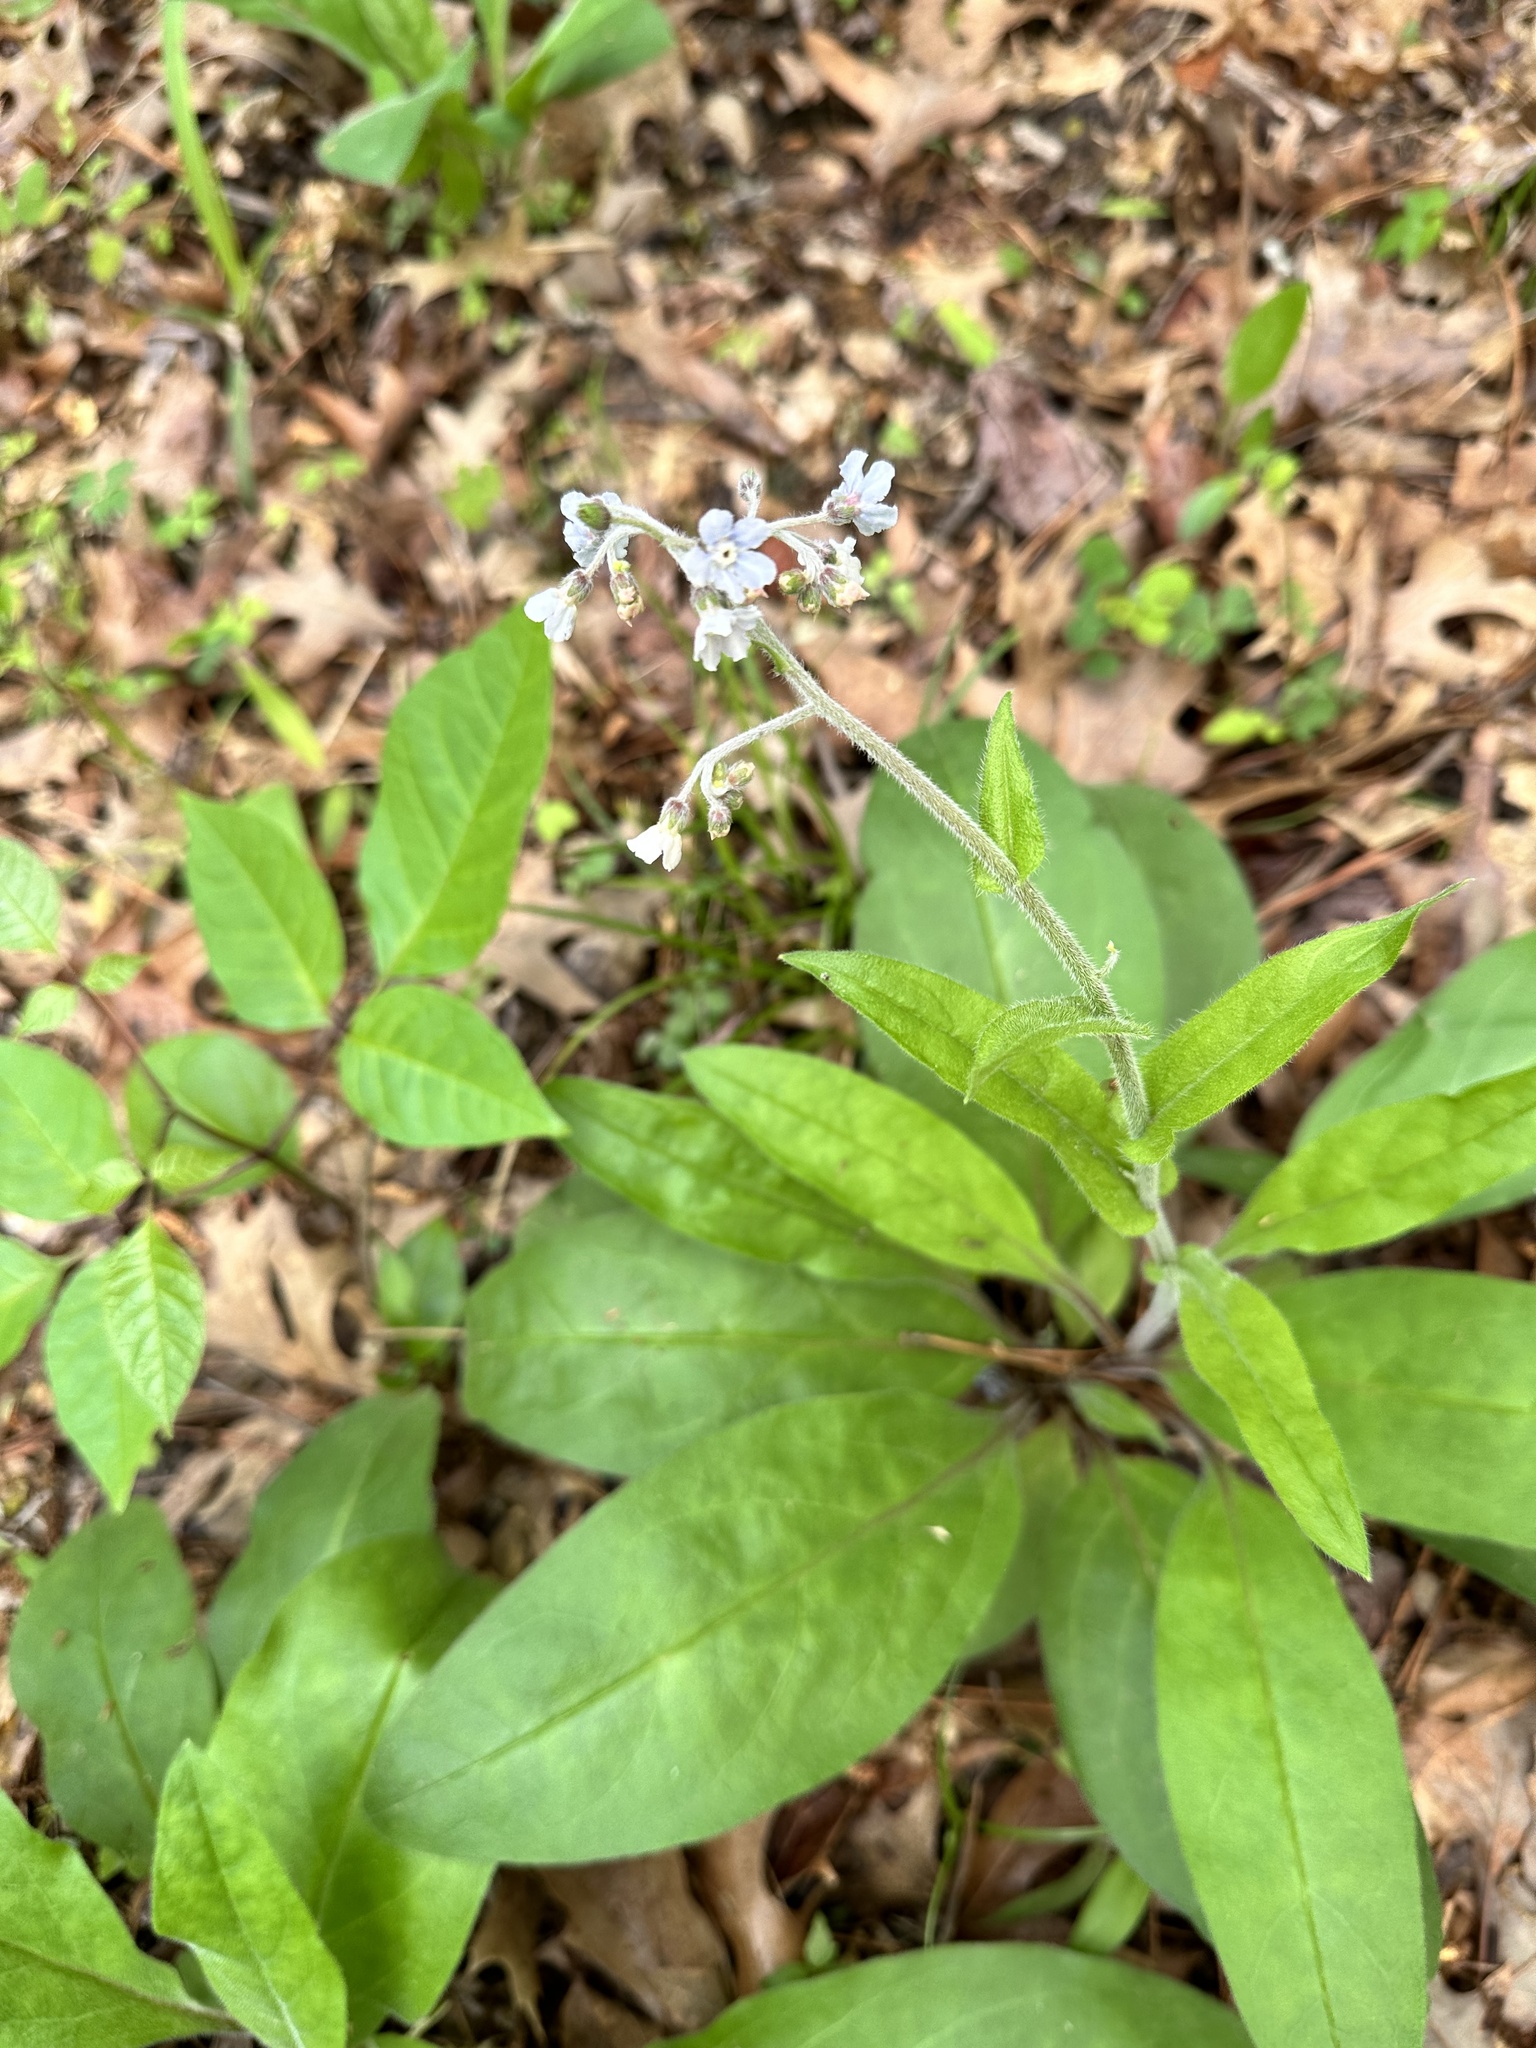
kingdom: Plantae
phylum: Tracheophyta
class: Magnoliopsida
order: Boraginales
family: Boraginaceae
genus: Andersonglossum
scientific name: Andersonglossum virginianum
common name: Wild comfrey
